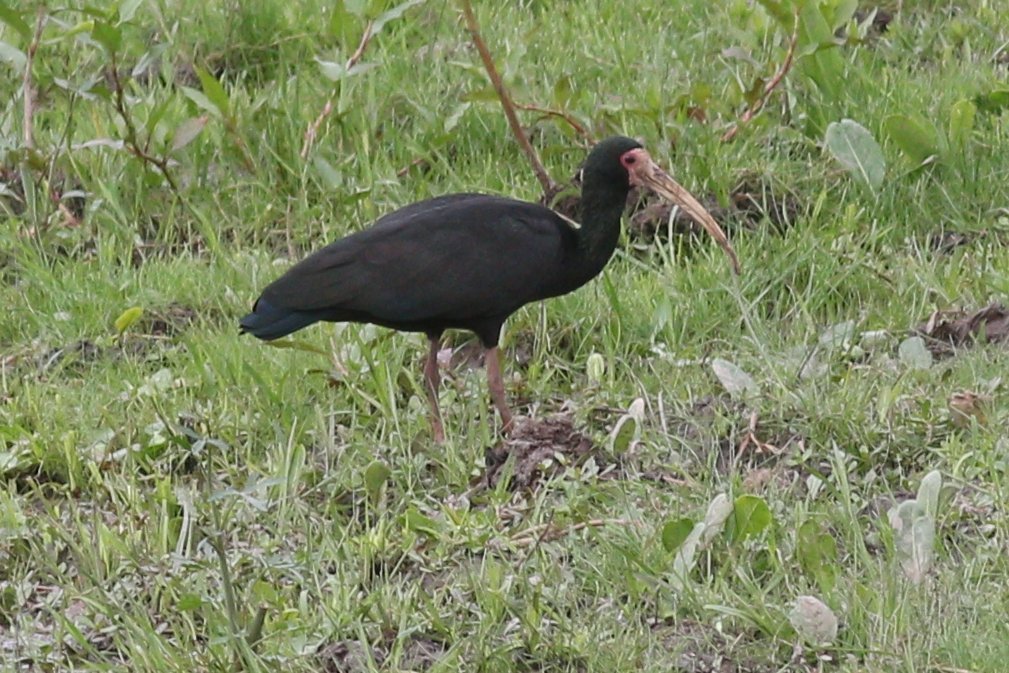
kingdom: Animalia
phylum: Chordata
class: Aves
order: Pelecaniformes
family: Threskiornithidae
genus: Phimosus
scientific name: Phimosus infuscatus
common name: Bare-faced ibis
